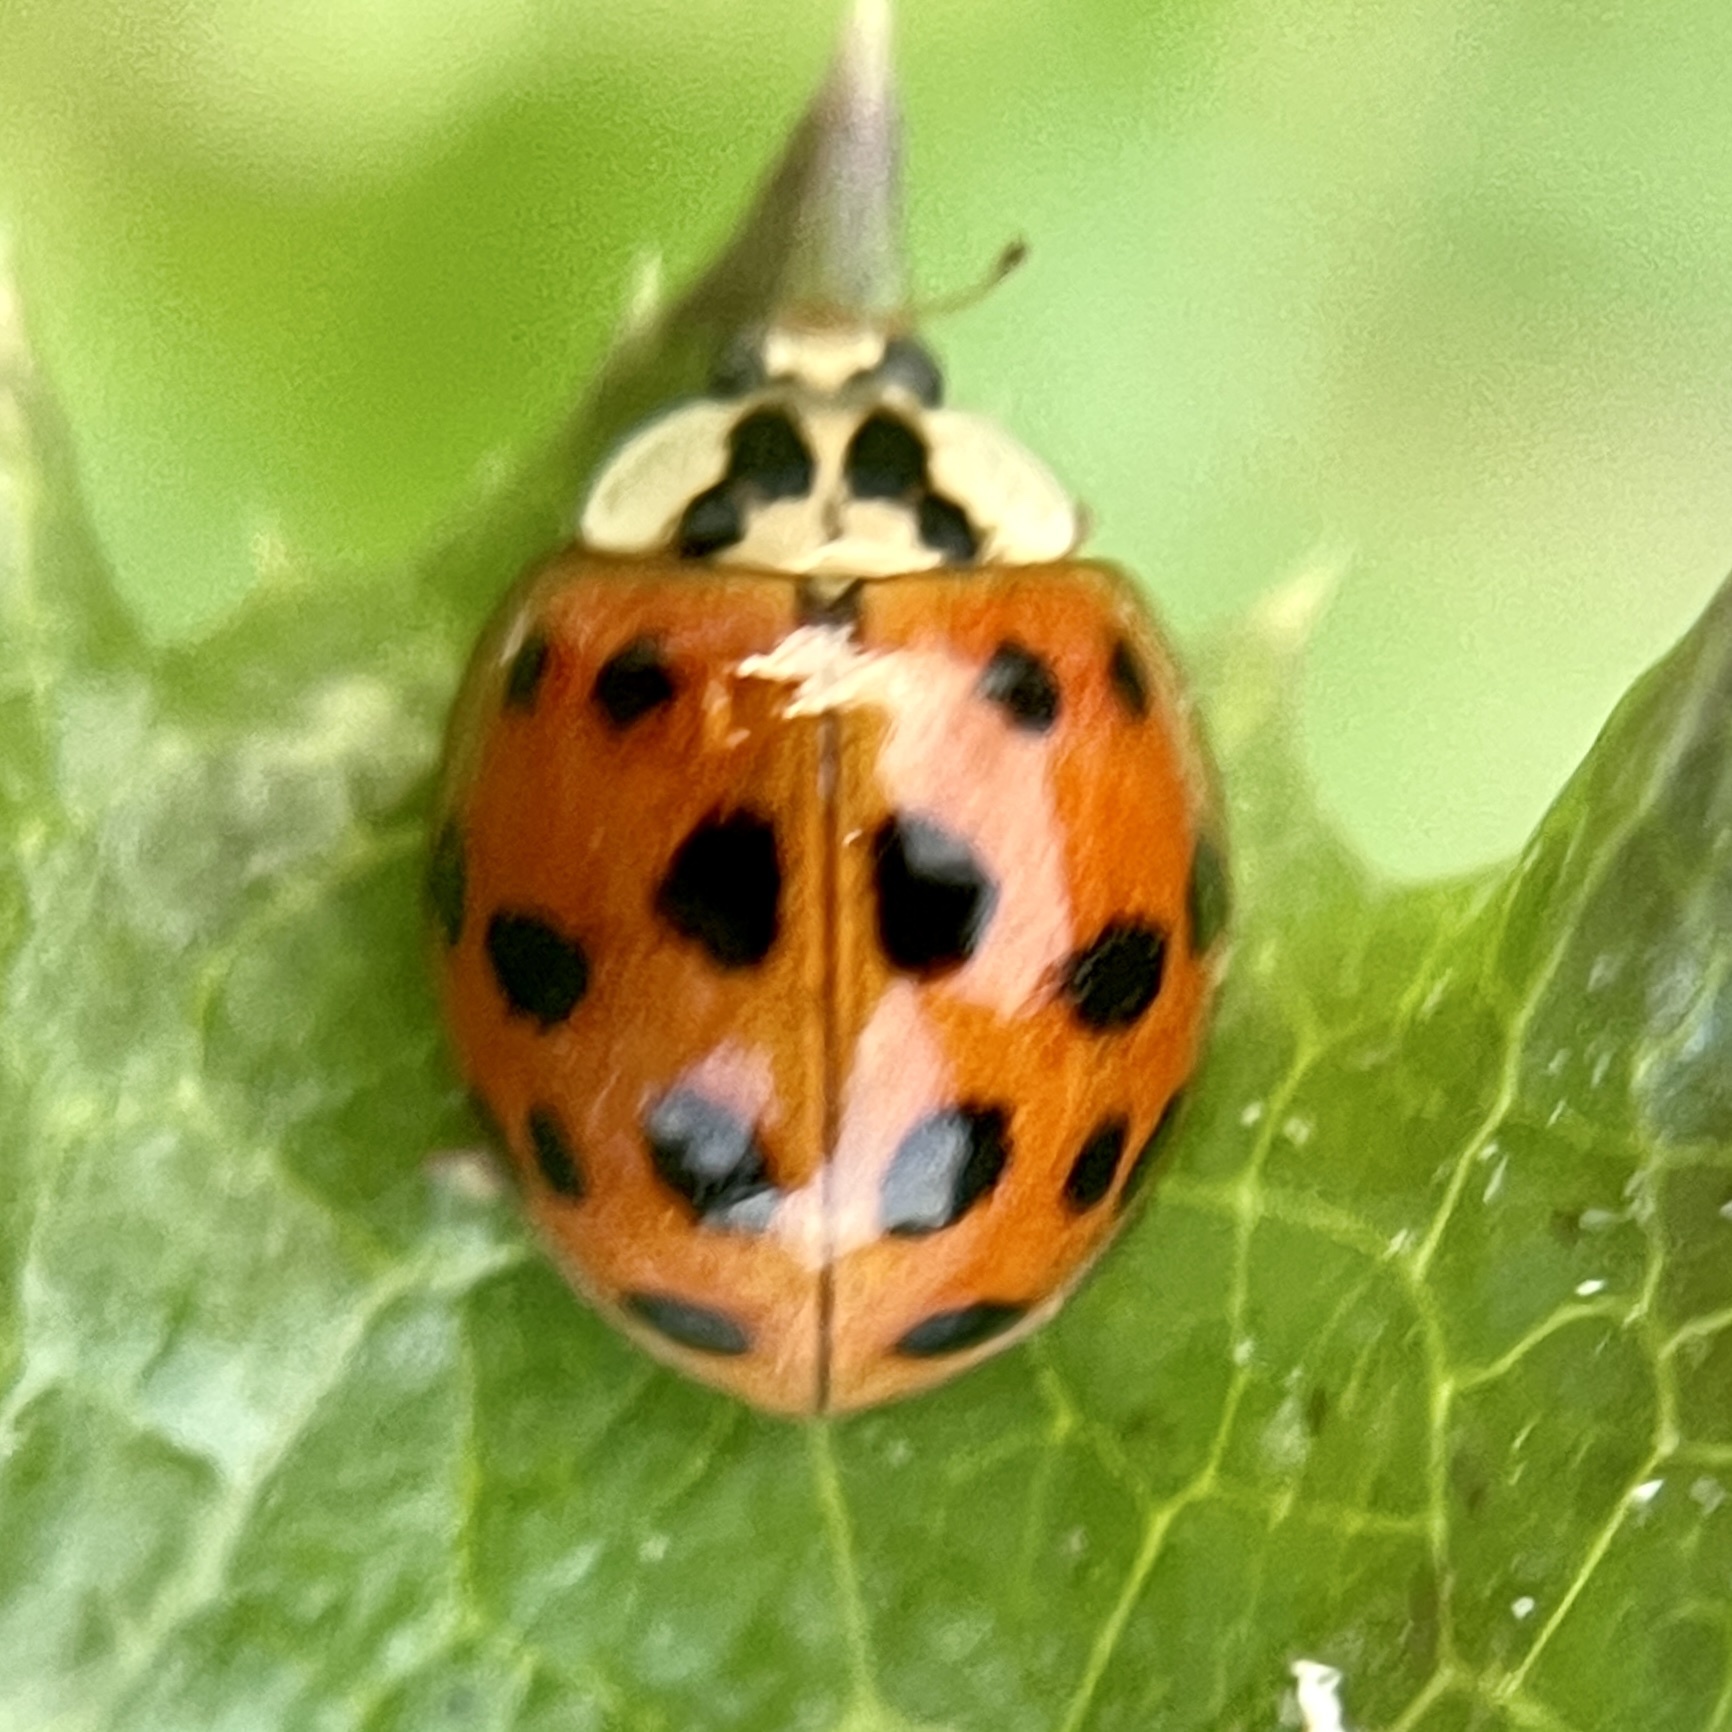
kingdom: Animalia
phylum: Arthropoda
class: Insecta
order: Coleoptera
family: Coccinellidae
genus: Harmonia
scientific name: Harmonia axyridis
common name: Harlequin ladybird
